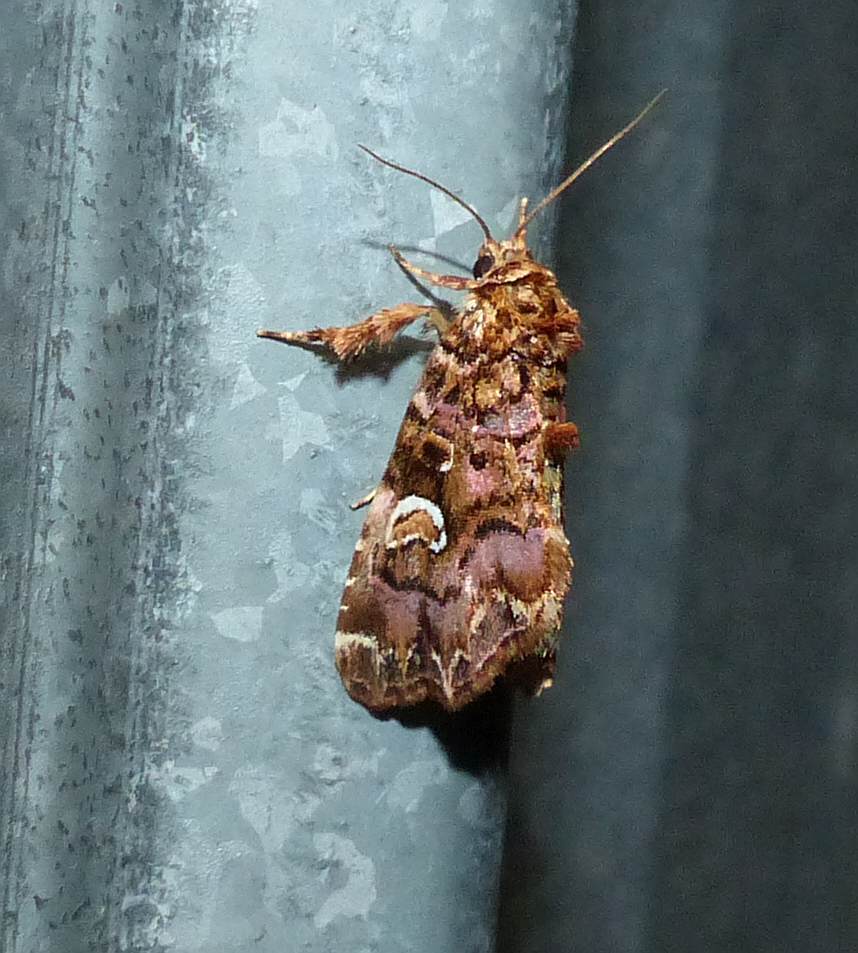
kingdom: Animalia
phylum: Arthropoda
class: Insecta
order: Lepidoptera
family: Noctuidae
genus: Callopistria
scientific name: Callopistria mollissima
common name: Pink-shaded fern moth
